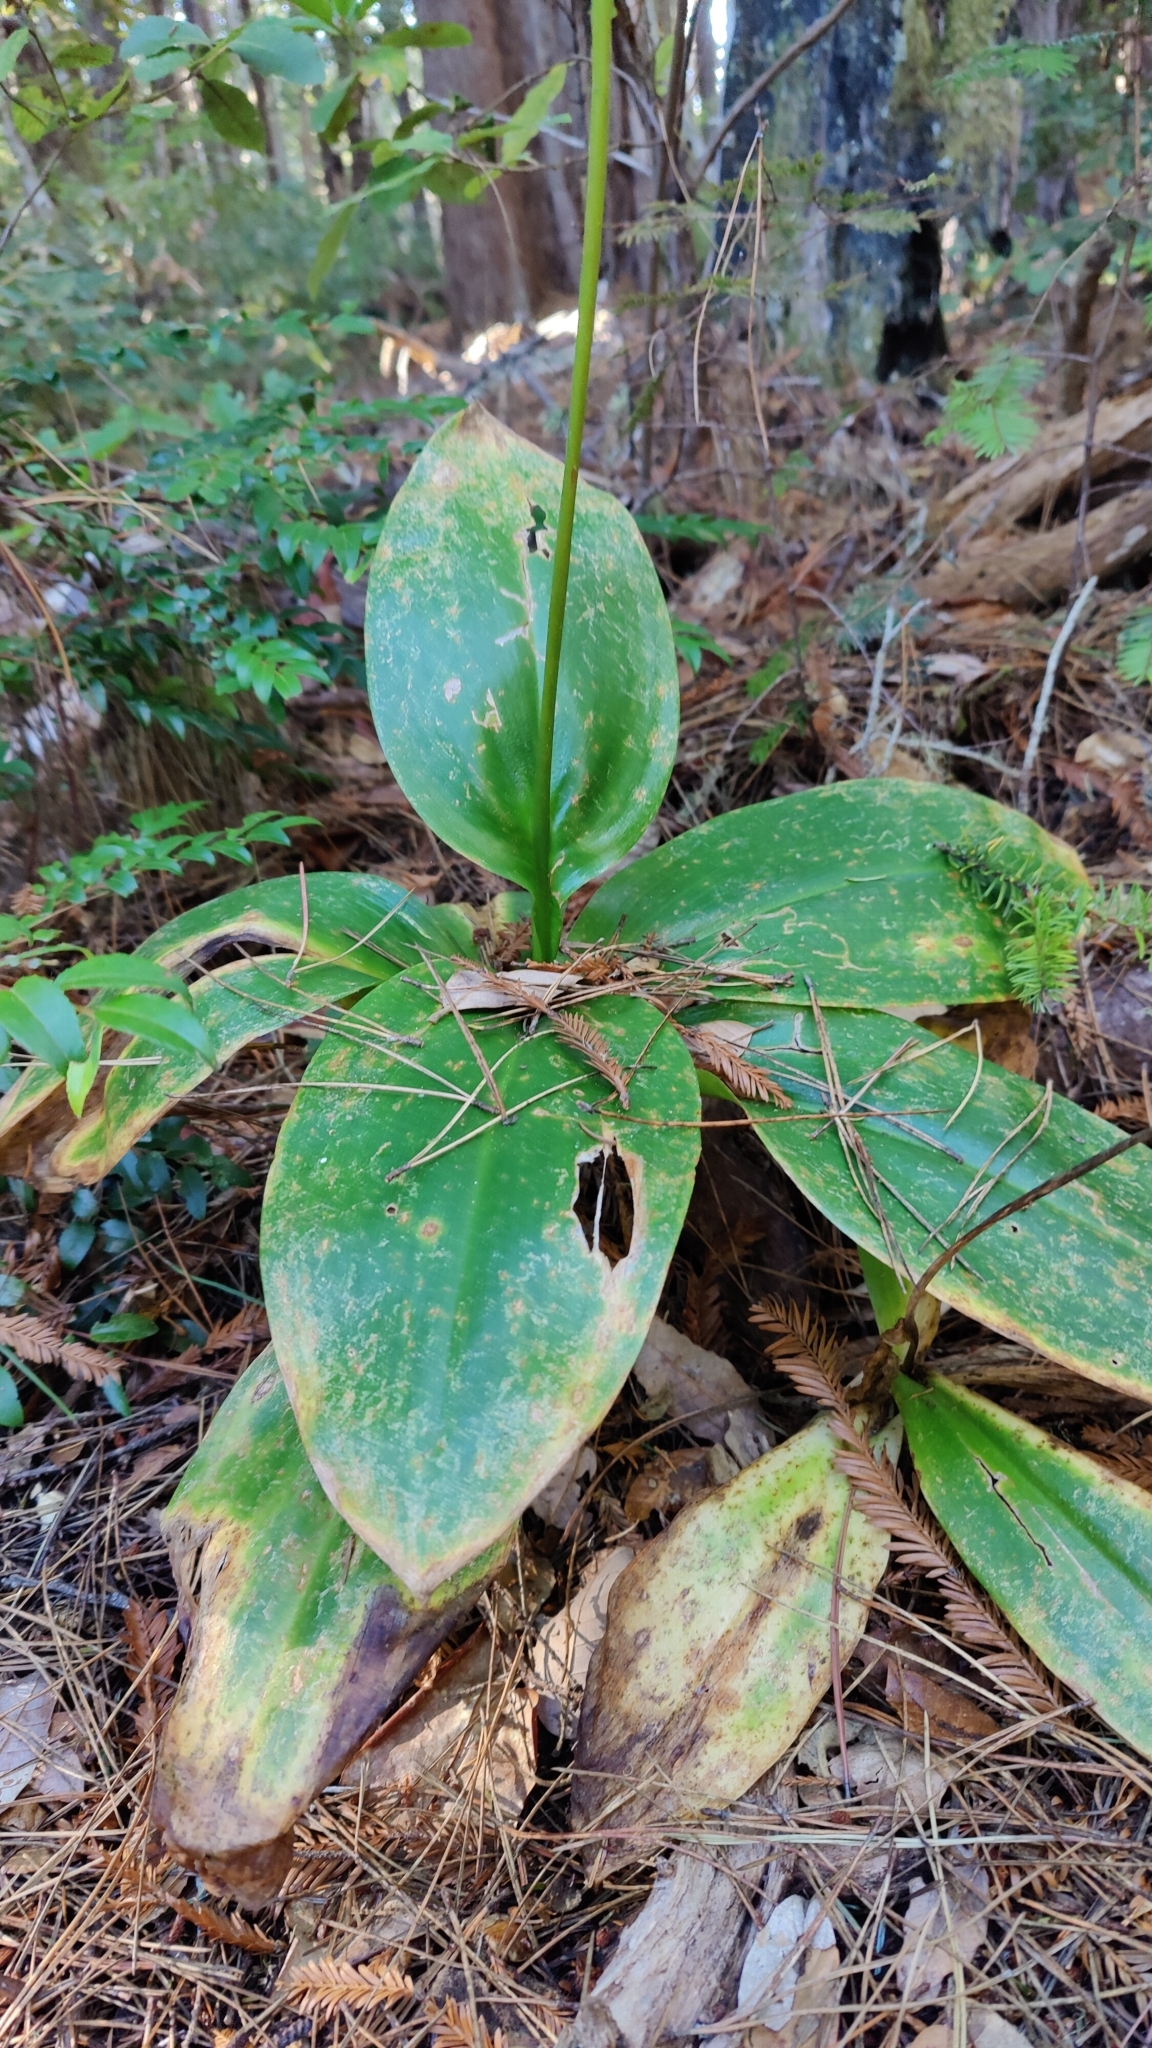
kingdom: Plantae
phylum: Tracheophyta
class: Liliopsida
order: Liliales
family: Liliaceae
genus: Clintonia
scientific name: Clintonia andrewsiana
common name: Red clintonia
